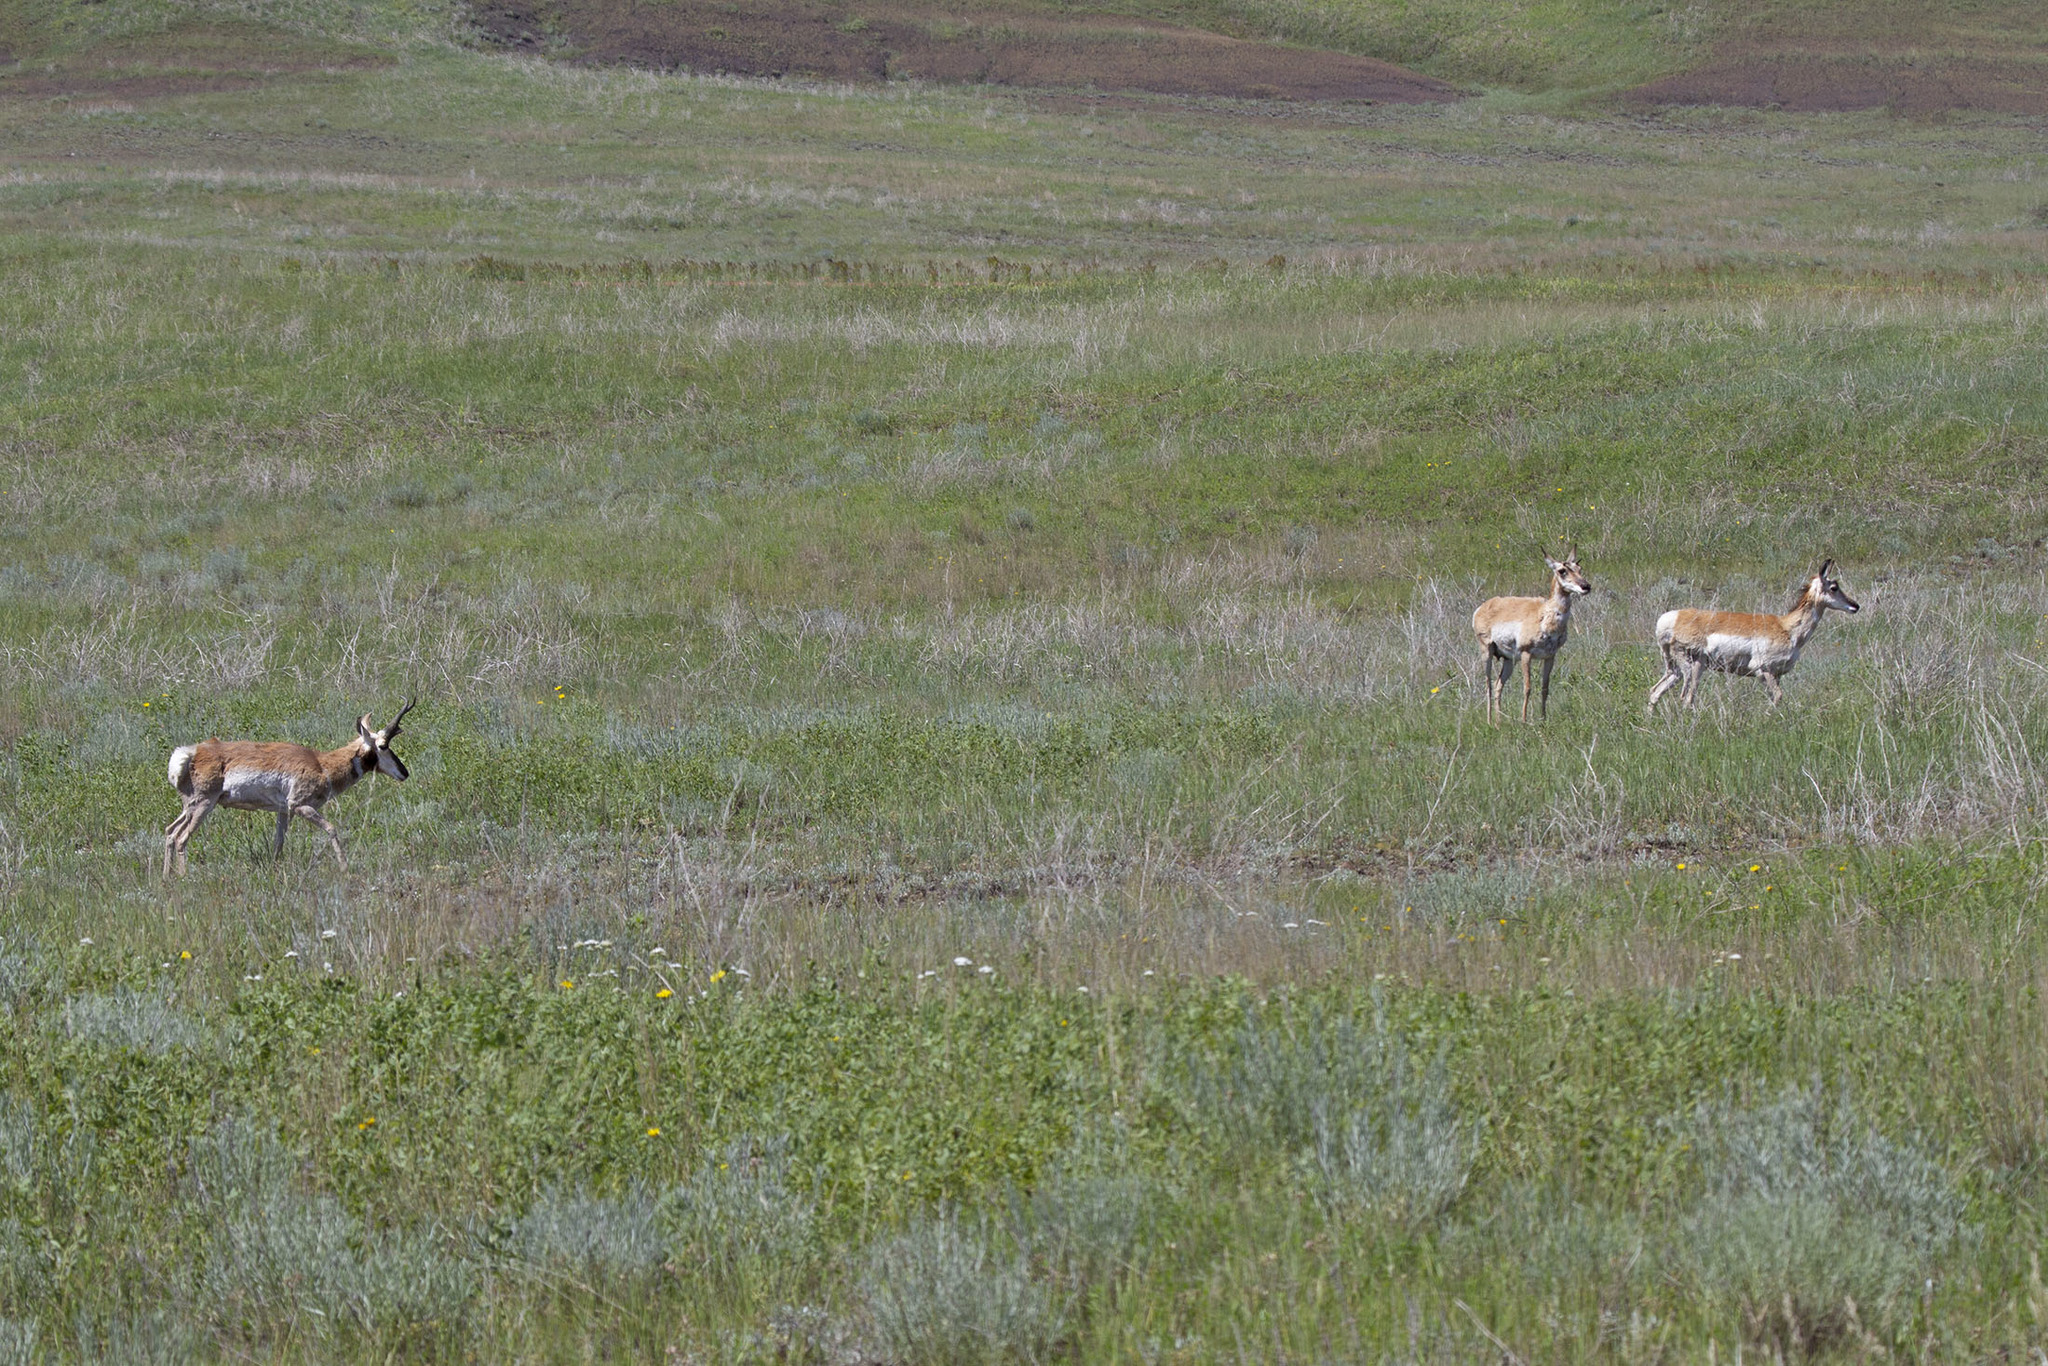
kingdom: Animalia
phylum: Chordata
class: Mammalia
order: Artiodactyla
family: Antilocapridae
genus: Antilocapra
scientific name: Antilocapra americana
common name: Pronghorn
